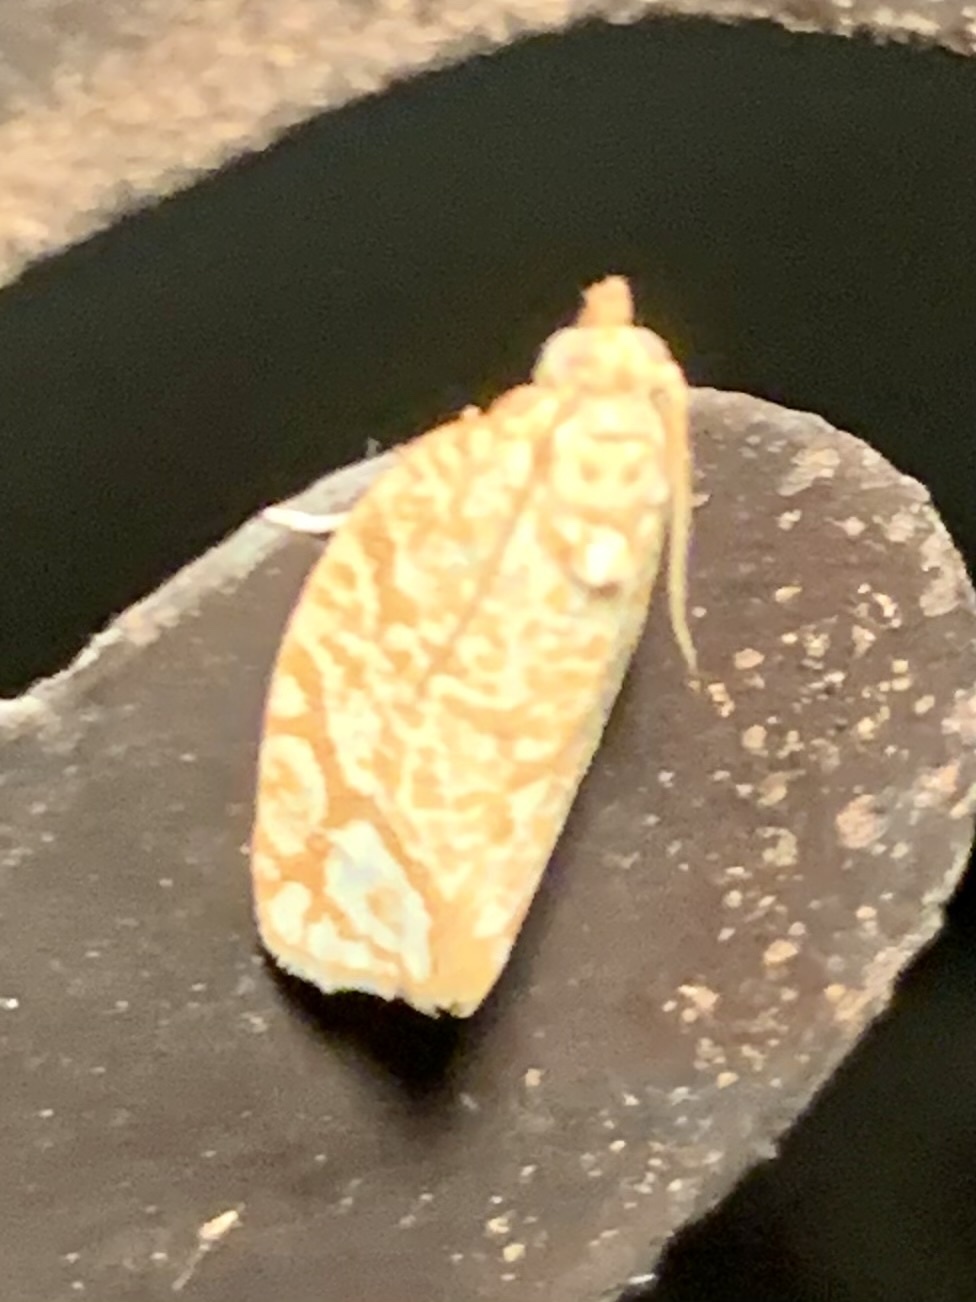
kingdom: Animalia
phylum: Arthropoda
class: Insecta
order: Lepidoptera
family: Tortricidae
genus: Argyrotaenia
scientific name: Argyrotaenia quercifoliana
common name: Yellow-winged oak leafroller moth
